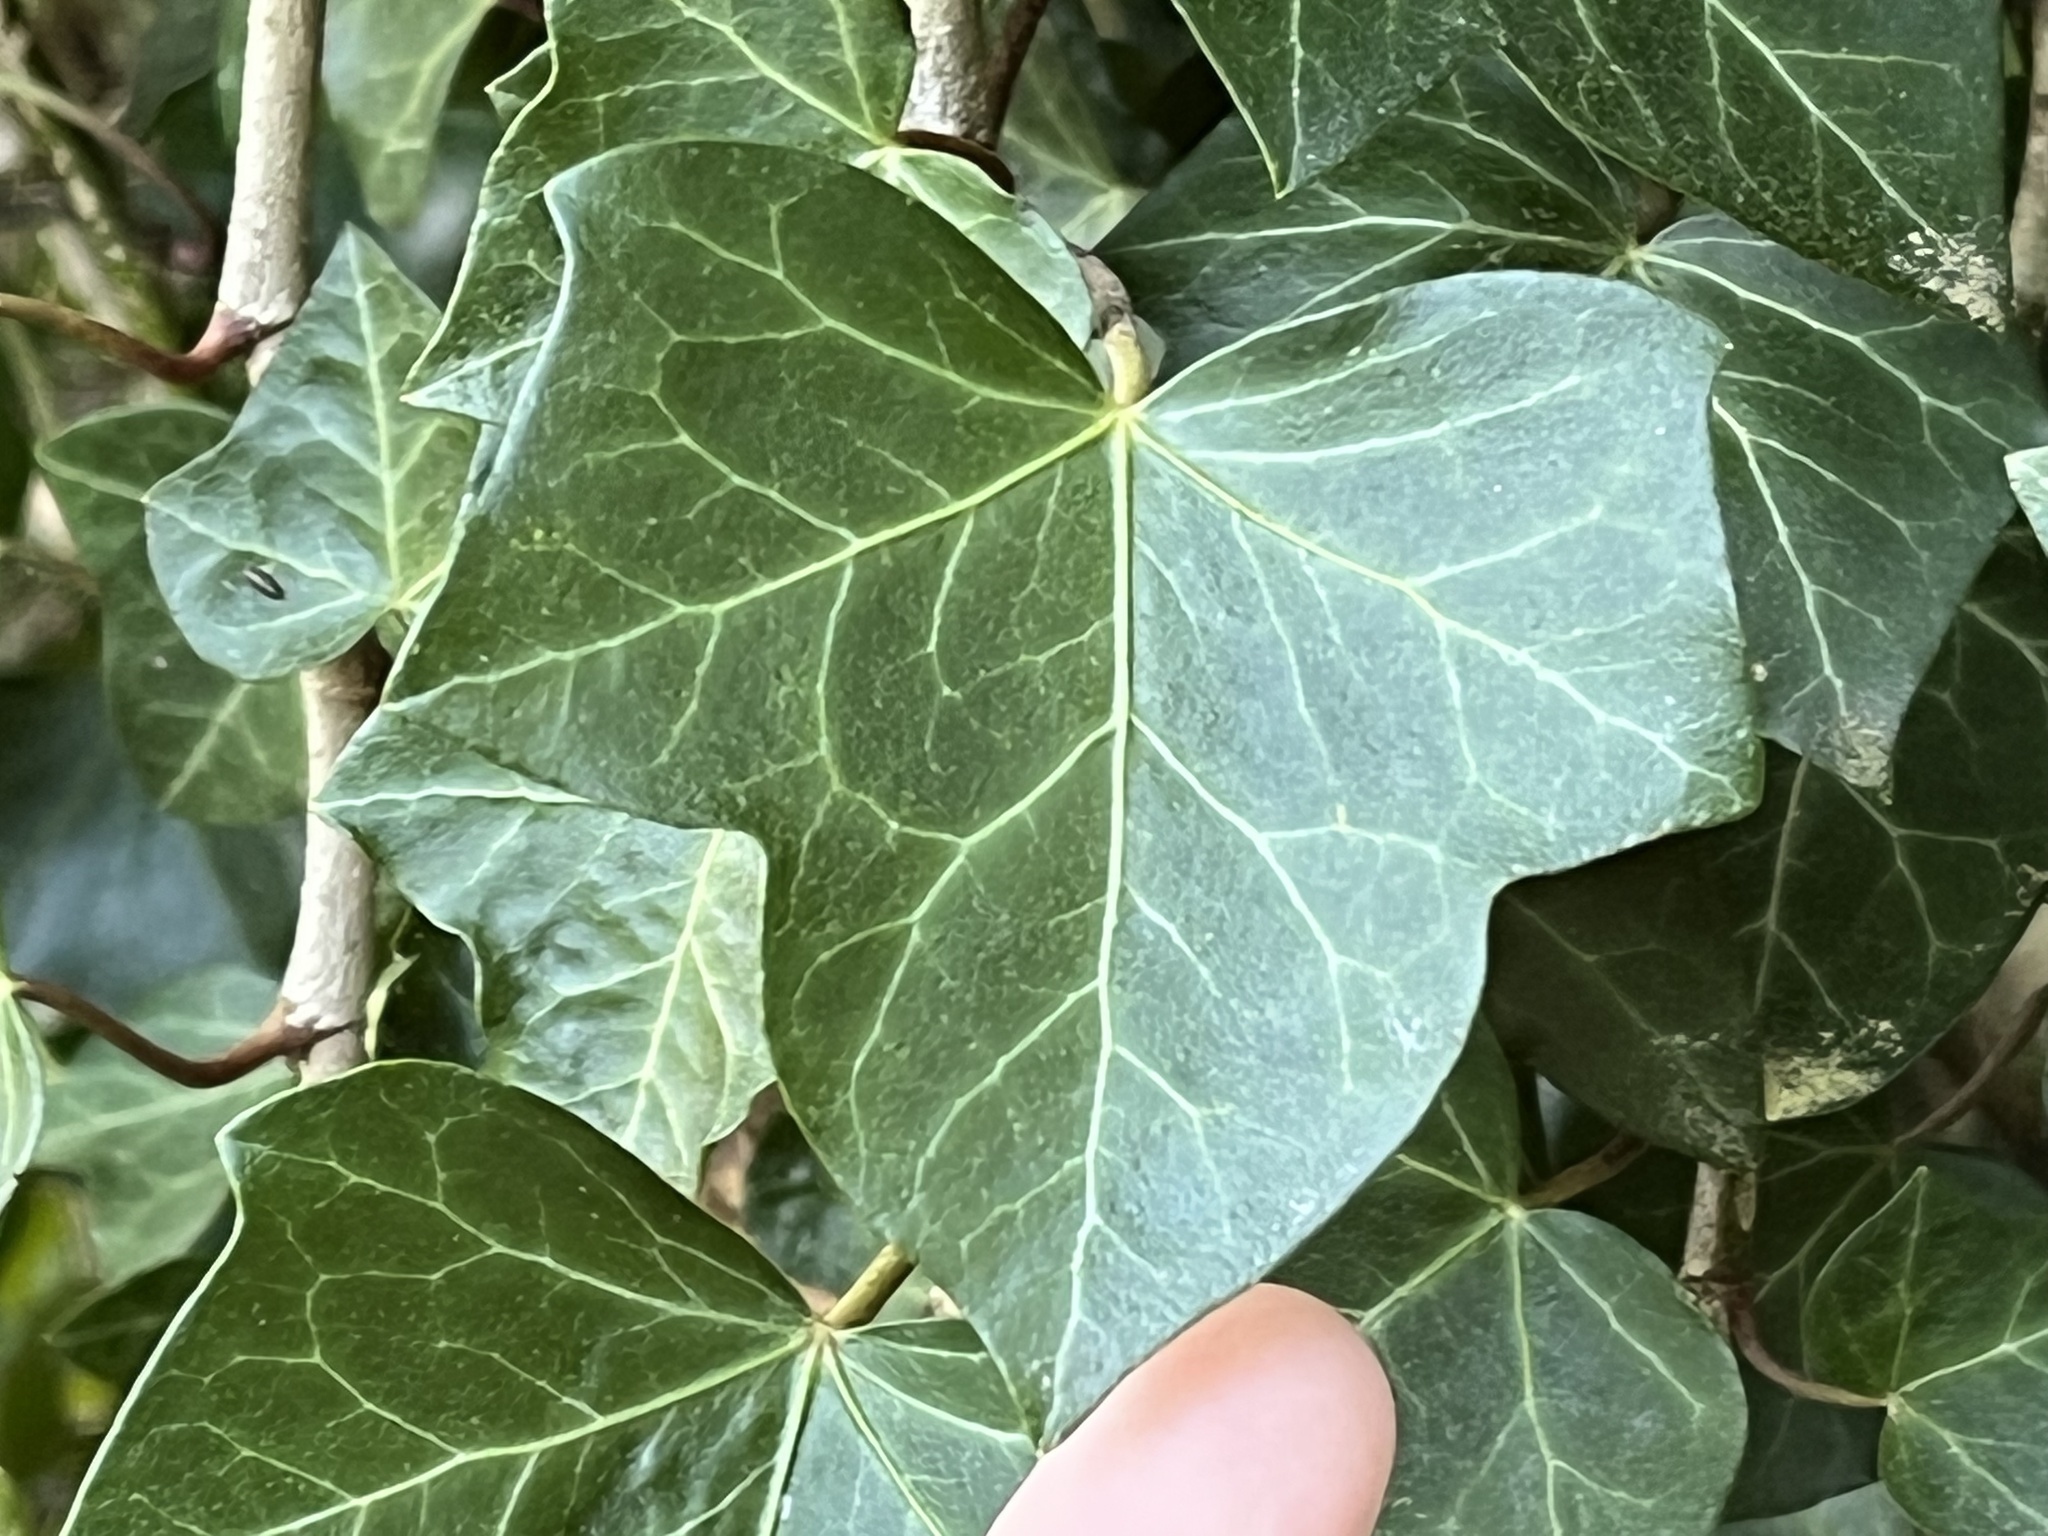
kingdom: Plantae
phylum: Tracheophyta
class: Magnoliopsida
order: Apiales
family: Araliaceae
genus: Hedera
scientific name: Hedera helix
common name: Ivy
